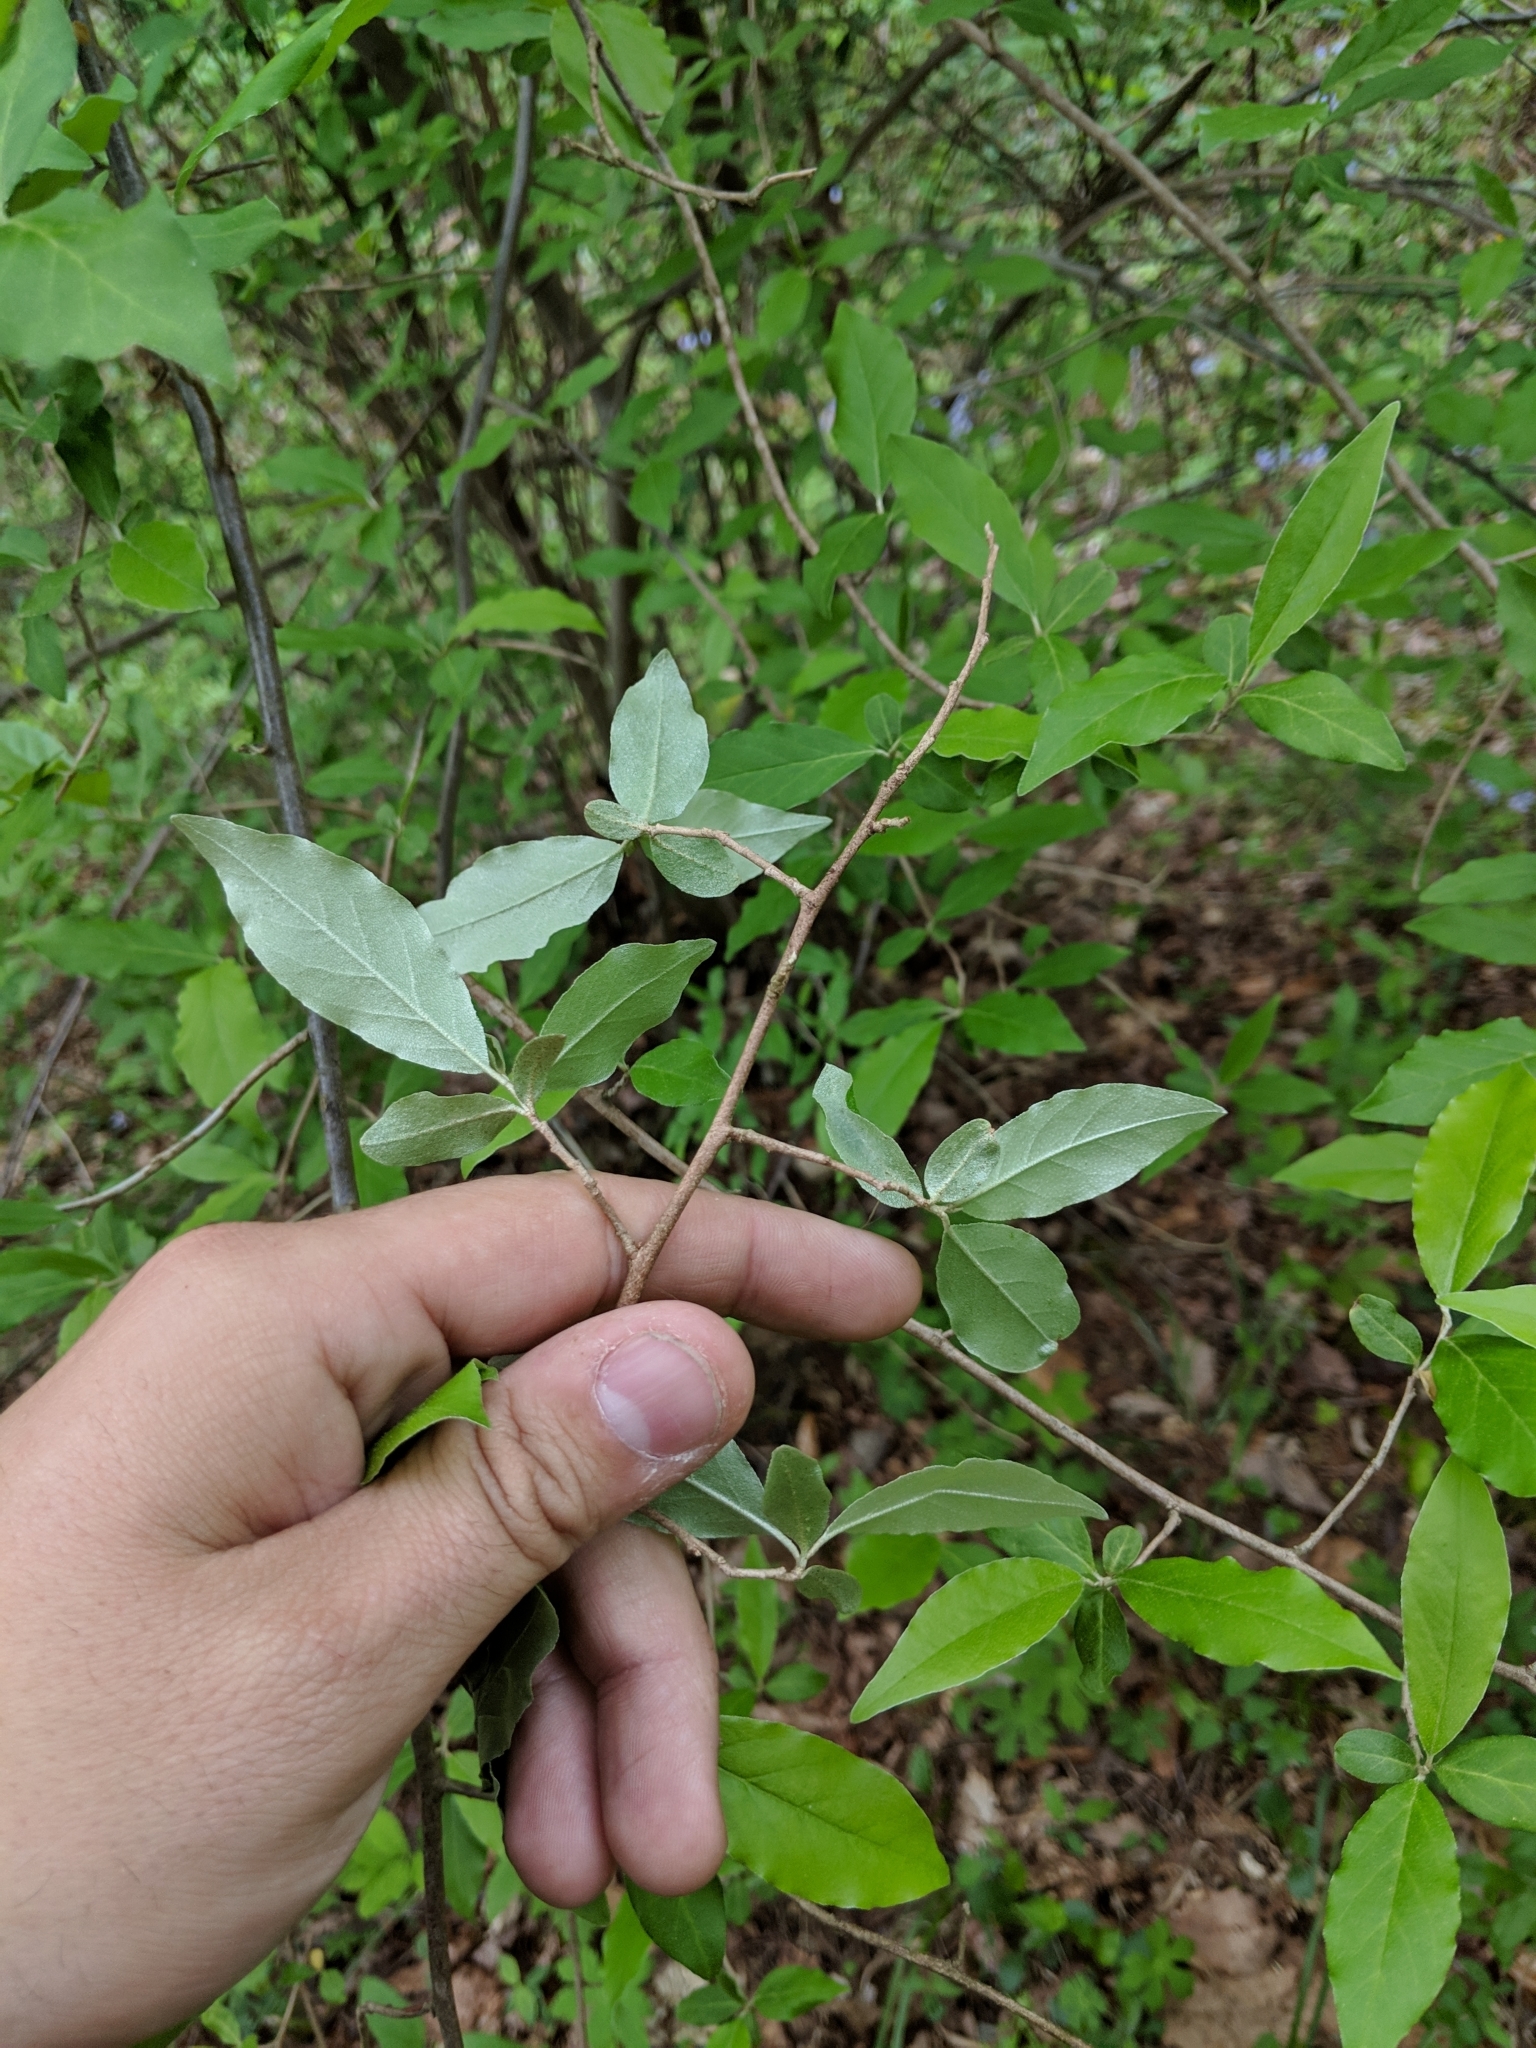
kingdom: Plantae
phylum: Tracheophyta
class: Magnoliopsida
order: Rosales
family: Elaeagnaceae
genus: Elaeagnus
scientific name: Elaeagnus umbellata
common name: Autumn olive
